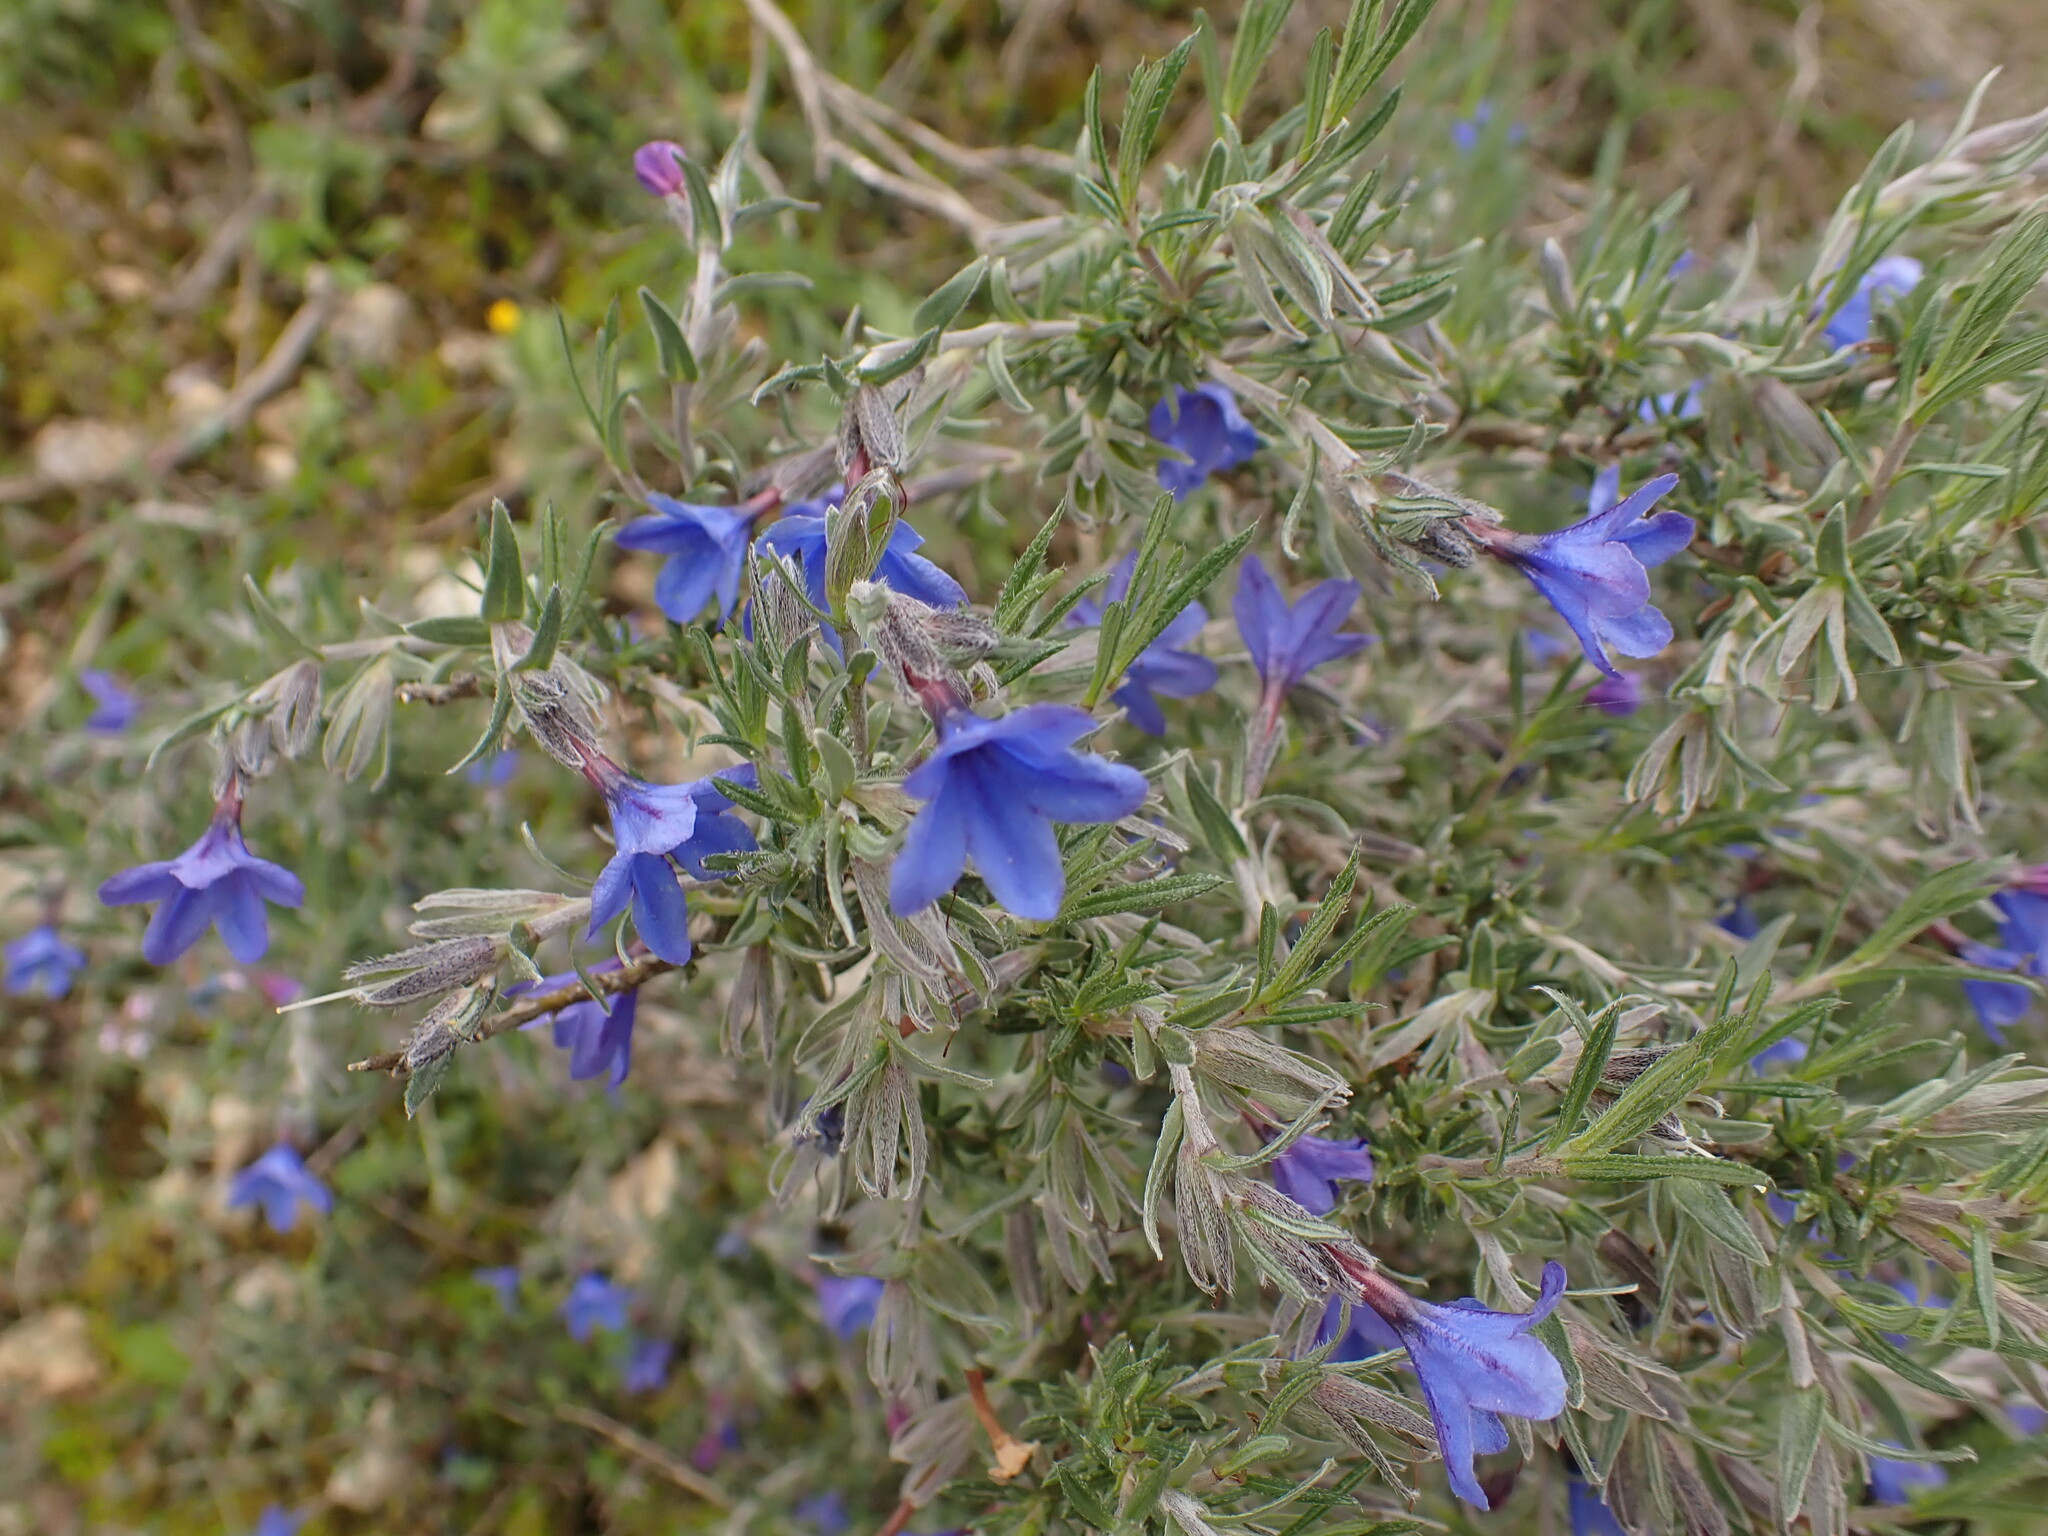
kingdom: Plantae
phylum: Tracheophyta
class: Magnoliopsida
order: Boraginales
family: Boraginaceae
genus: Lithodora
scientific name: Lithodora fruticosa
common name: Shrubby gromwell
